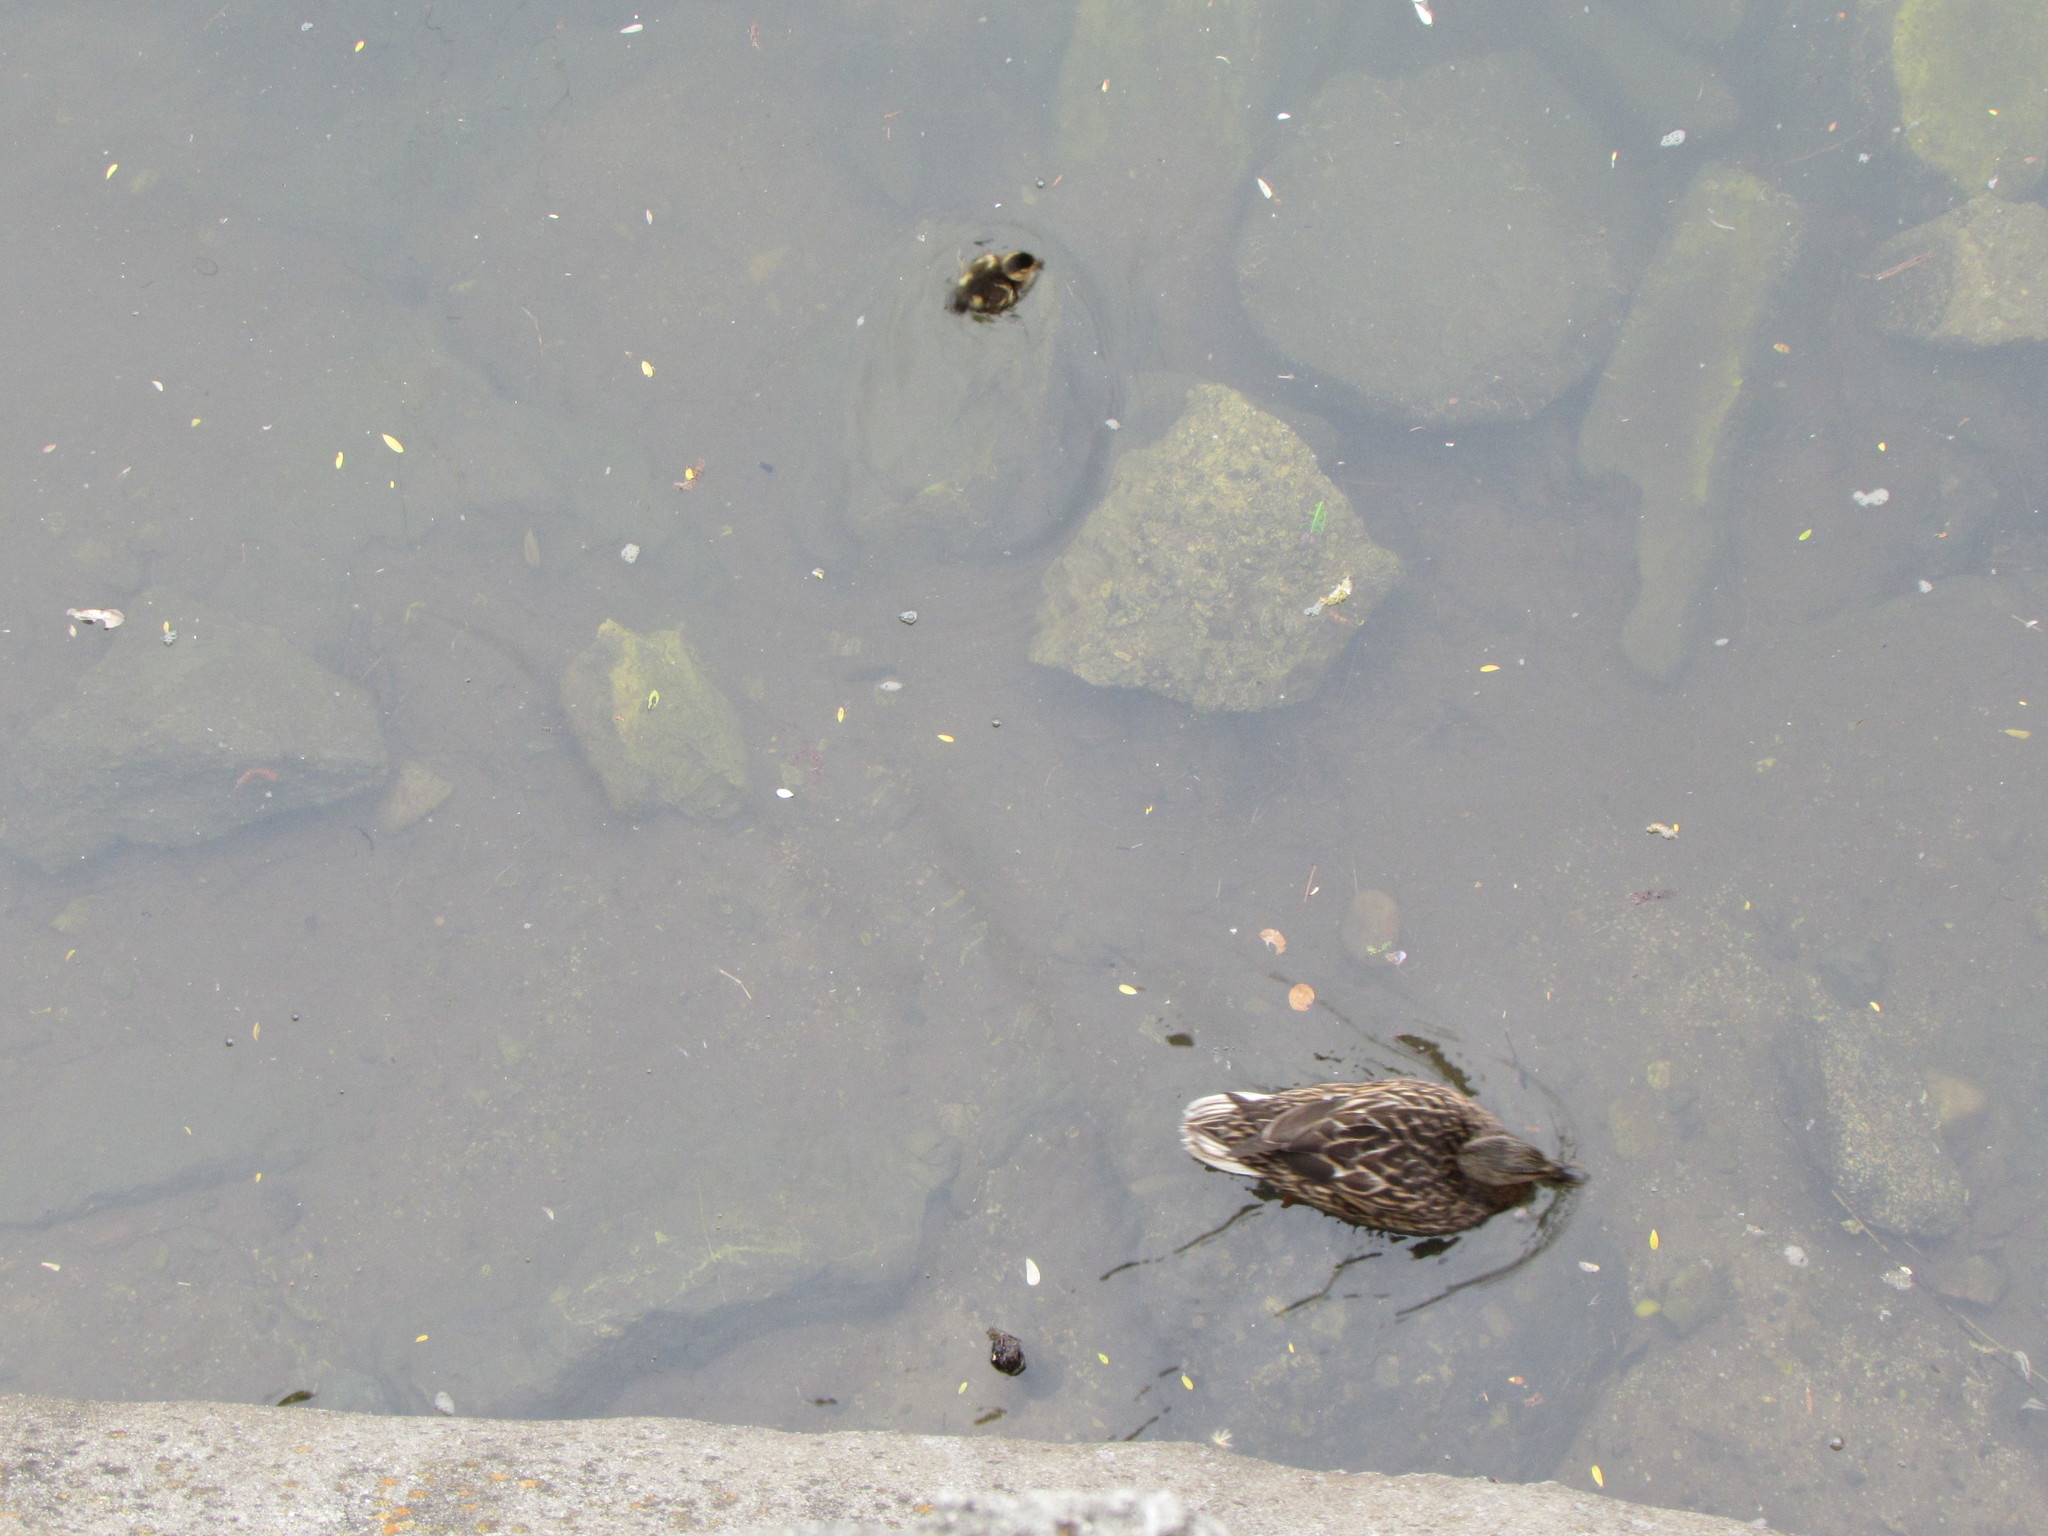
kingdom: Animalia
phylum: Chordata
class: Aves
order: Anseriformes
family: Anatidae
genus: Anas
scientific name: Anas platyrhynchos
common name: Mallard
